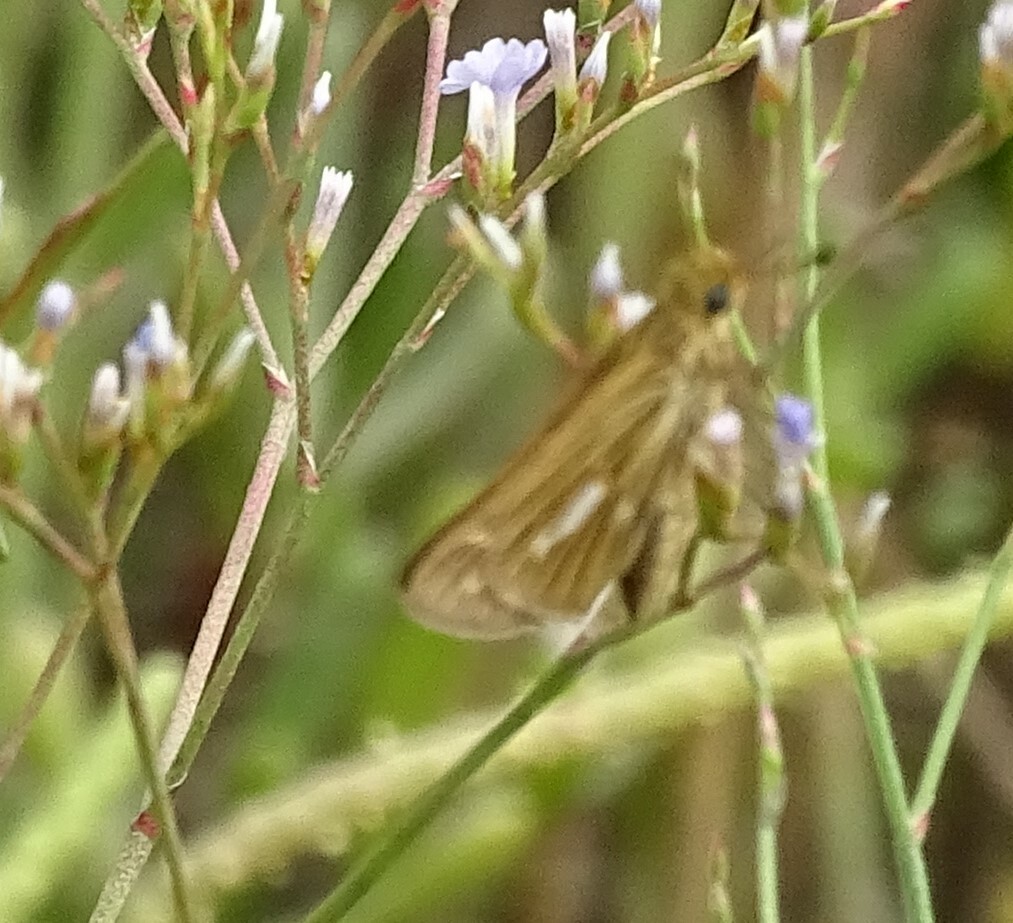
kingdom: Animalia
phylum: Arthropoda
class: Insecta
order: Lepidoptera
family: Hesperiidae
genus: Panoquina
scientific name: Panoquina panoquin
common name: Salt marsh skipper
